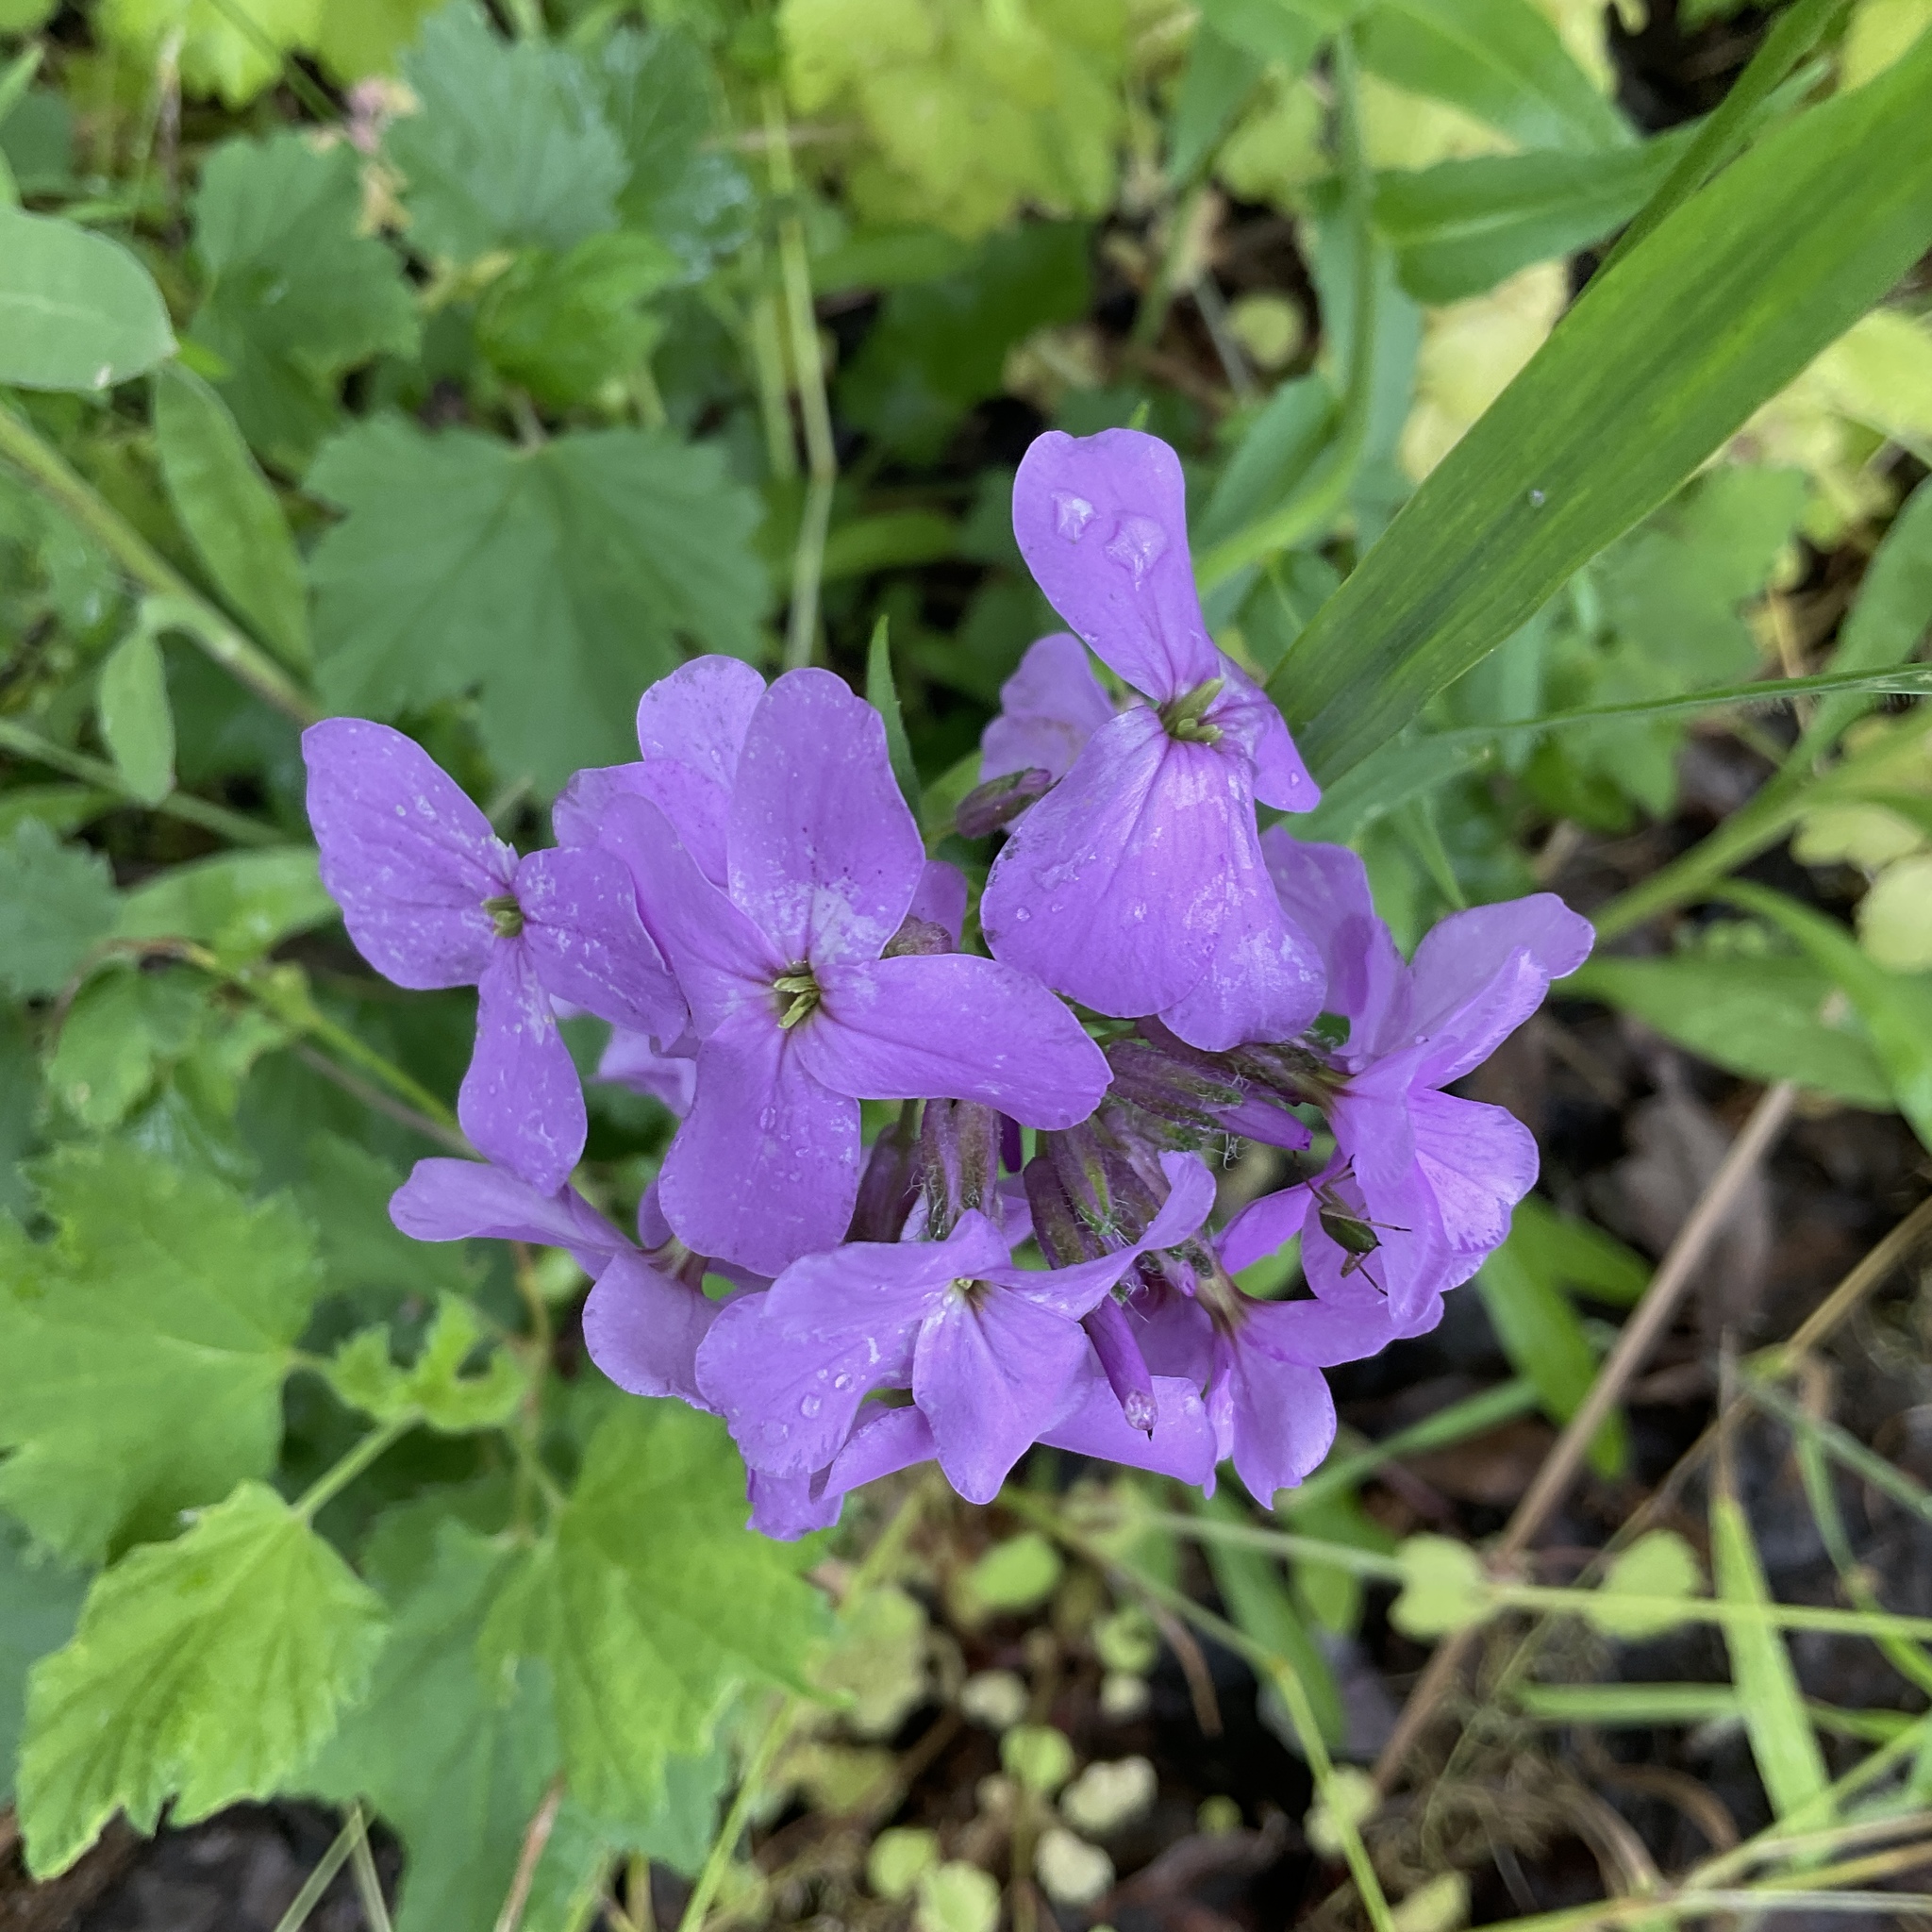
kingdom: Plantae
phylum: Tracheophyta
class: Magnoliopsida
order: Brassicales
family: Brassicaceae
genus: Hesperis
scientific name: Hesperis matronalis
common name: Dame's-violet
